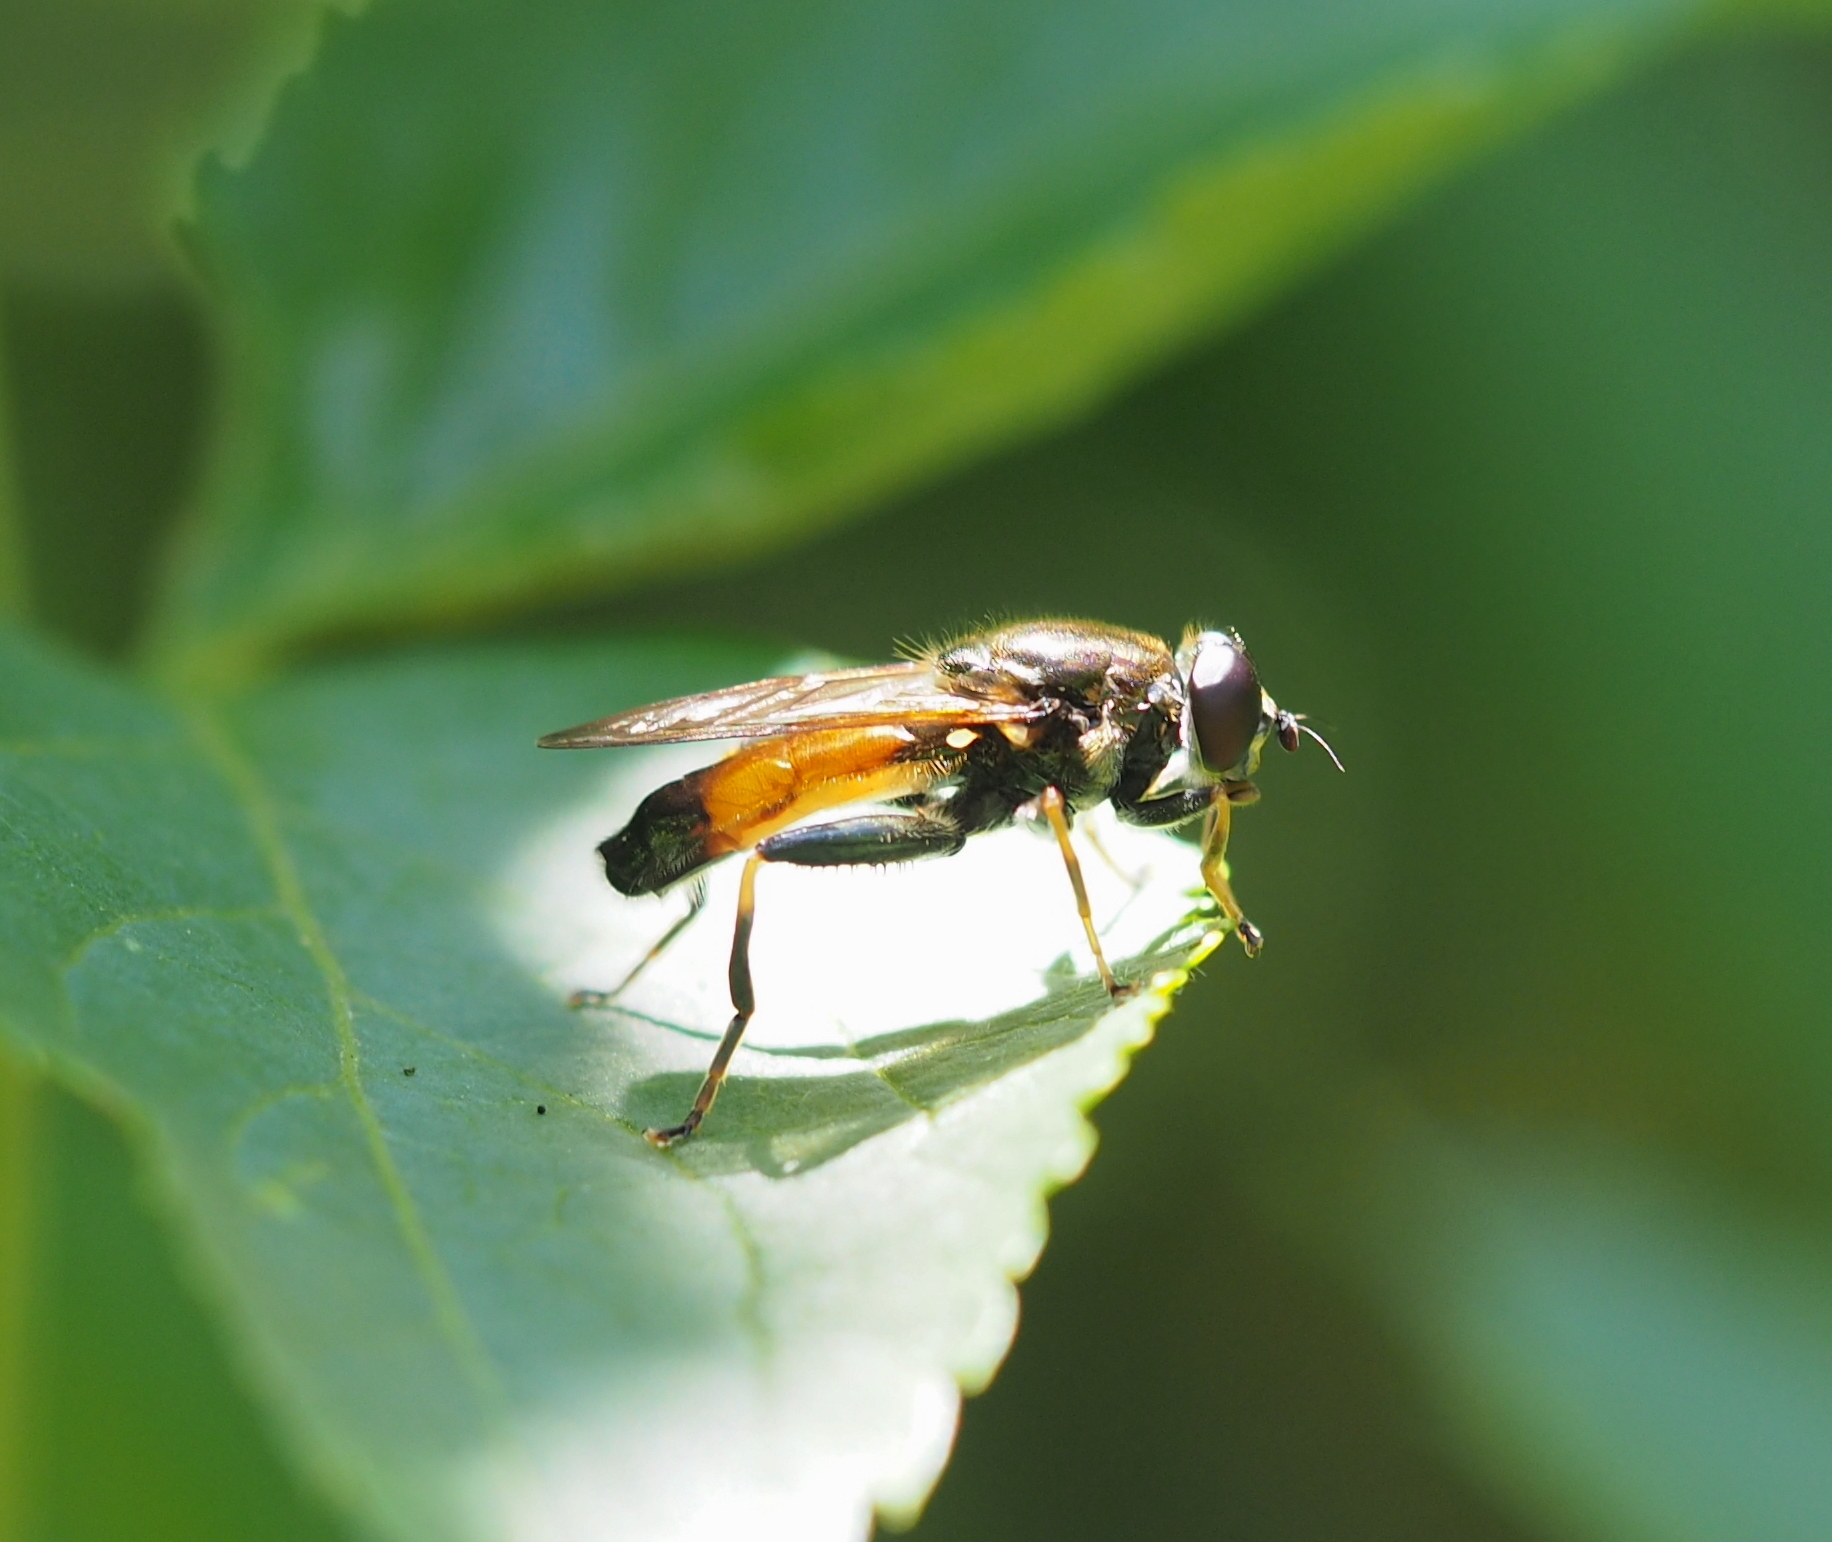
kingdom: Animalia
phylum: Arthropoda
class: Insecta
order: Diptera
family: Syrphidae
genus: Xylota
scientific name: Xylota segnis
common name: Brown-toed forest fly
